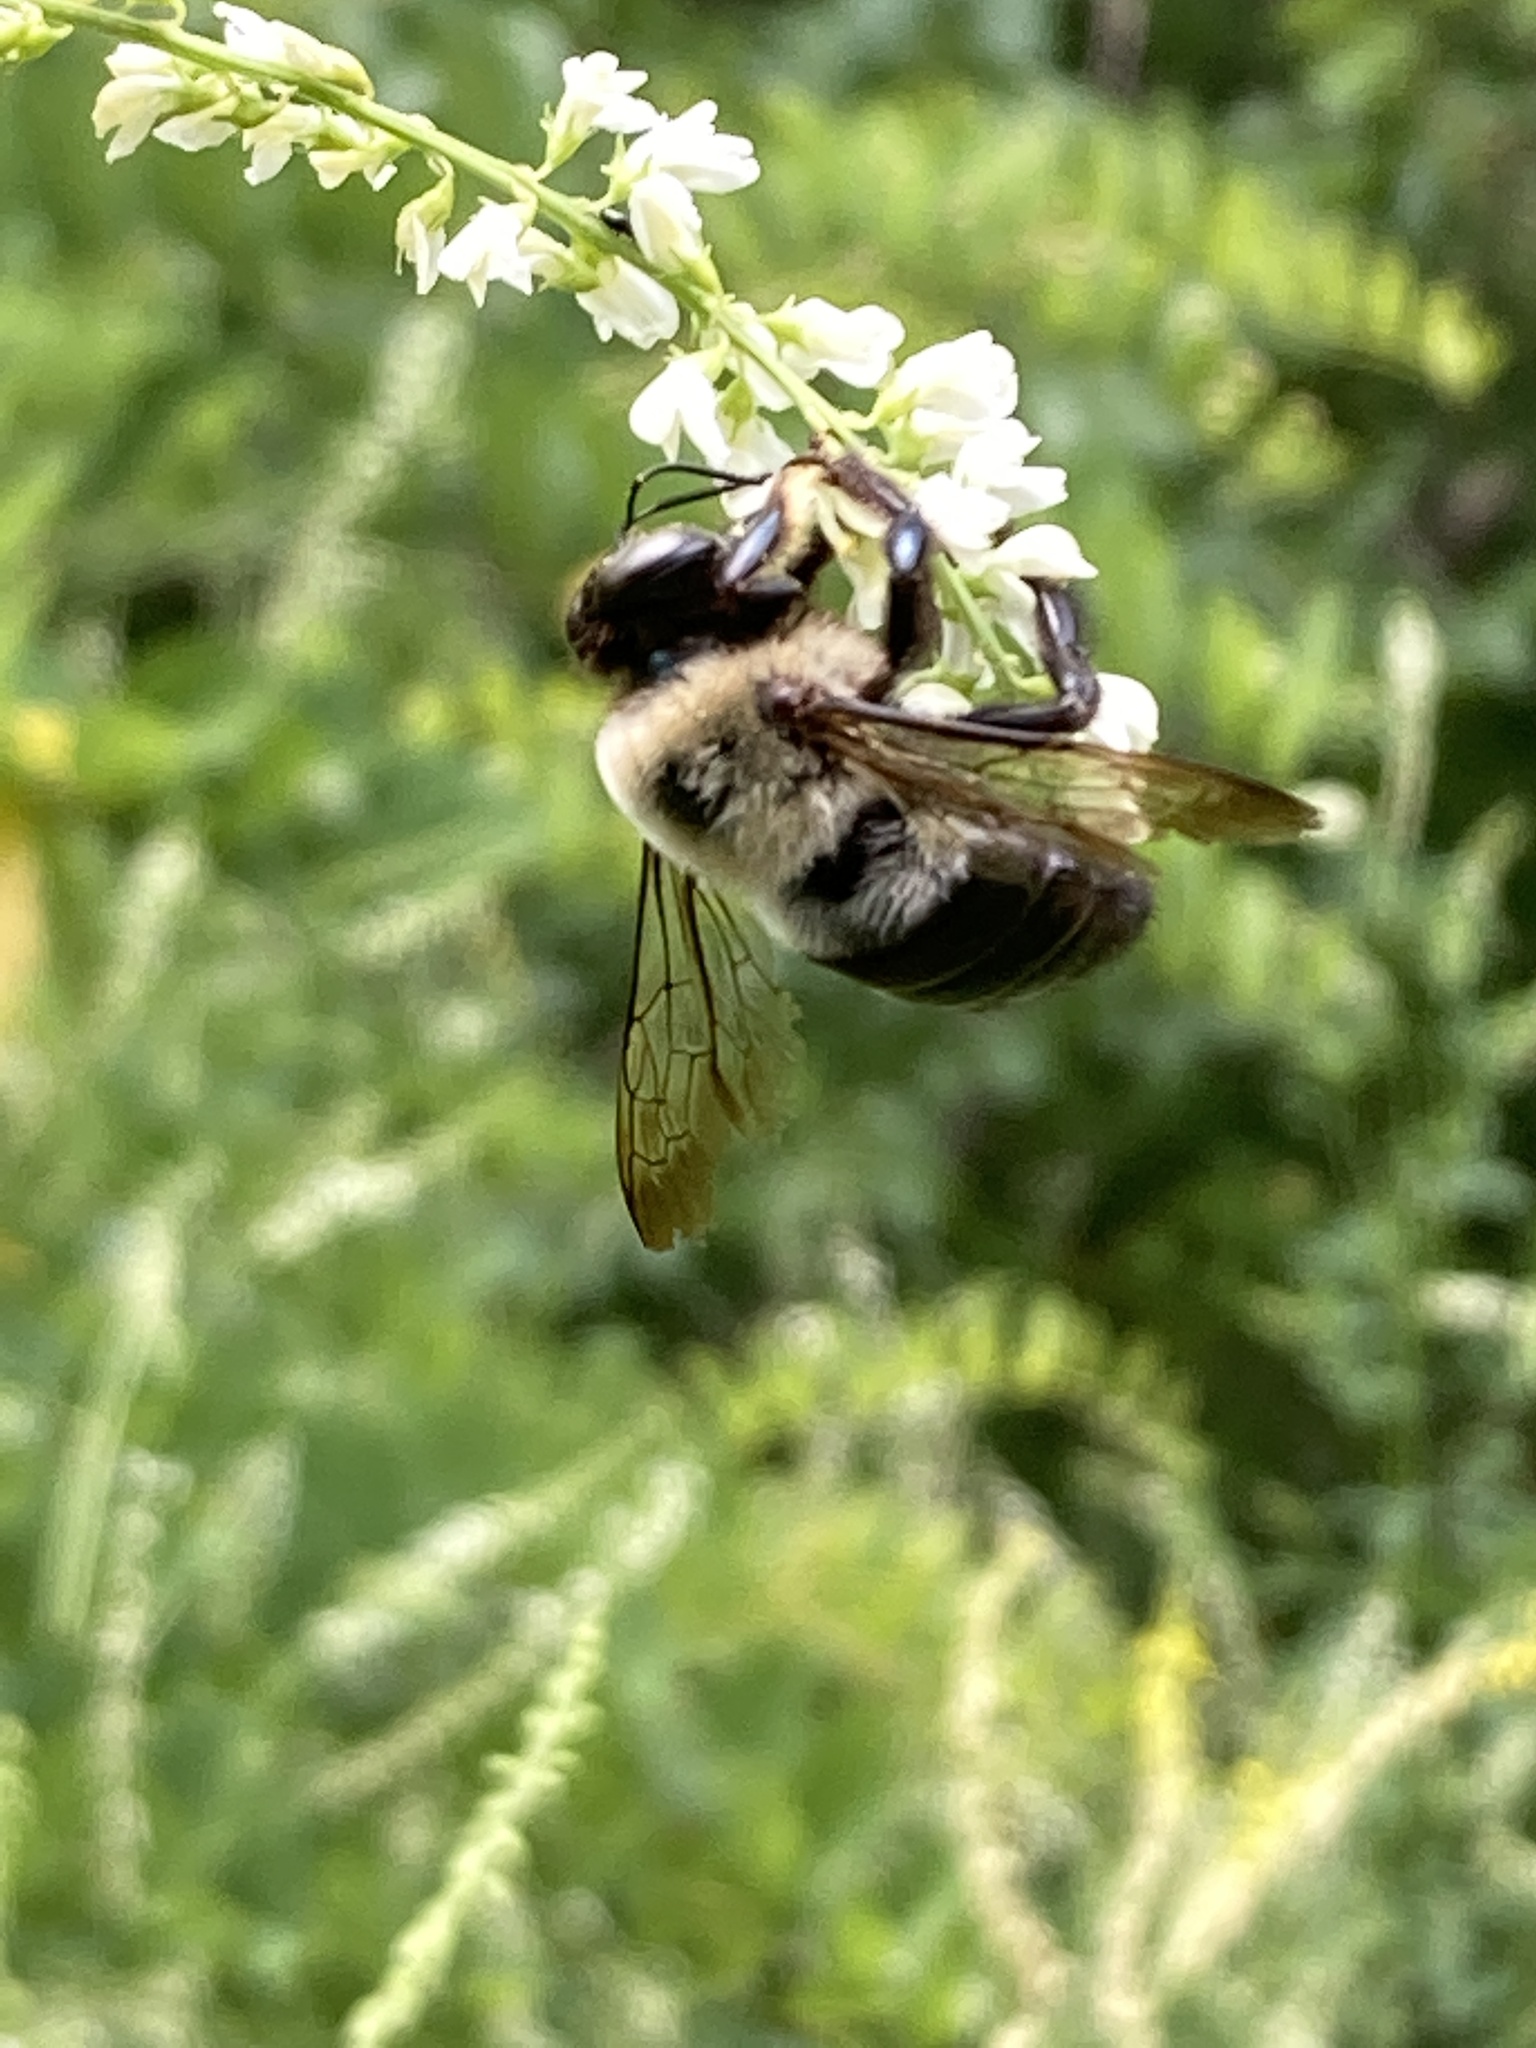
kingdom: Animalia
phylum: Arthropoda
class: Insecta
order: Hymenoptera
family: Apidae
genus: Xylocopa
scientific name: Xylocopa virginica
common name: Carpenter bee
